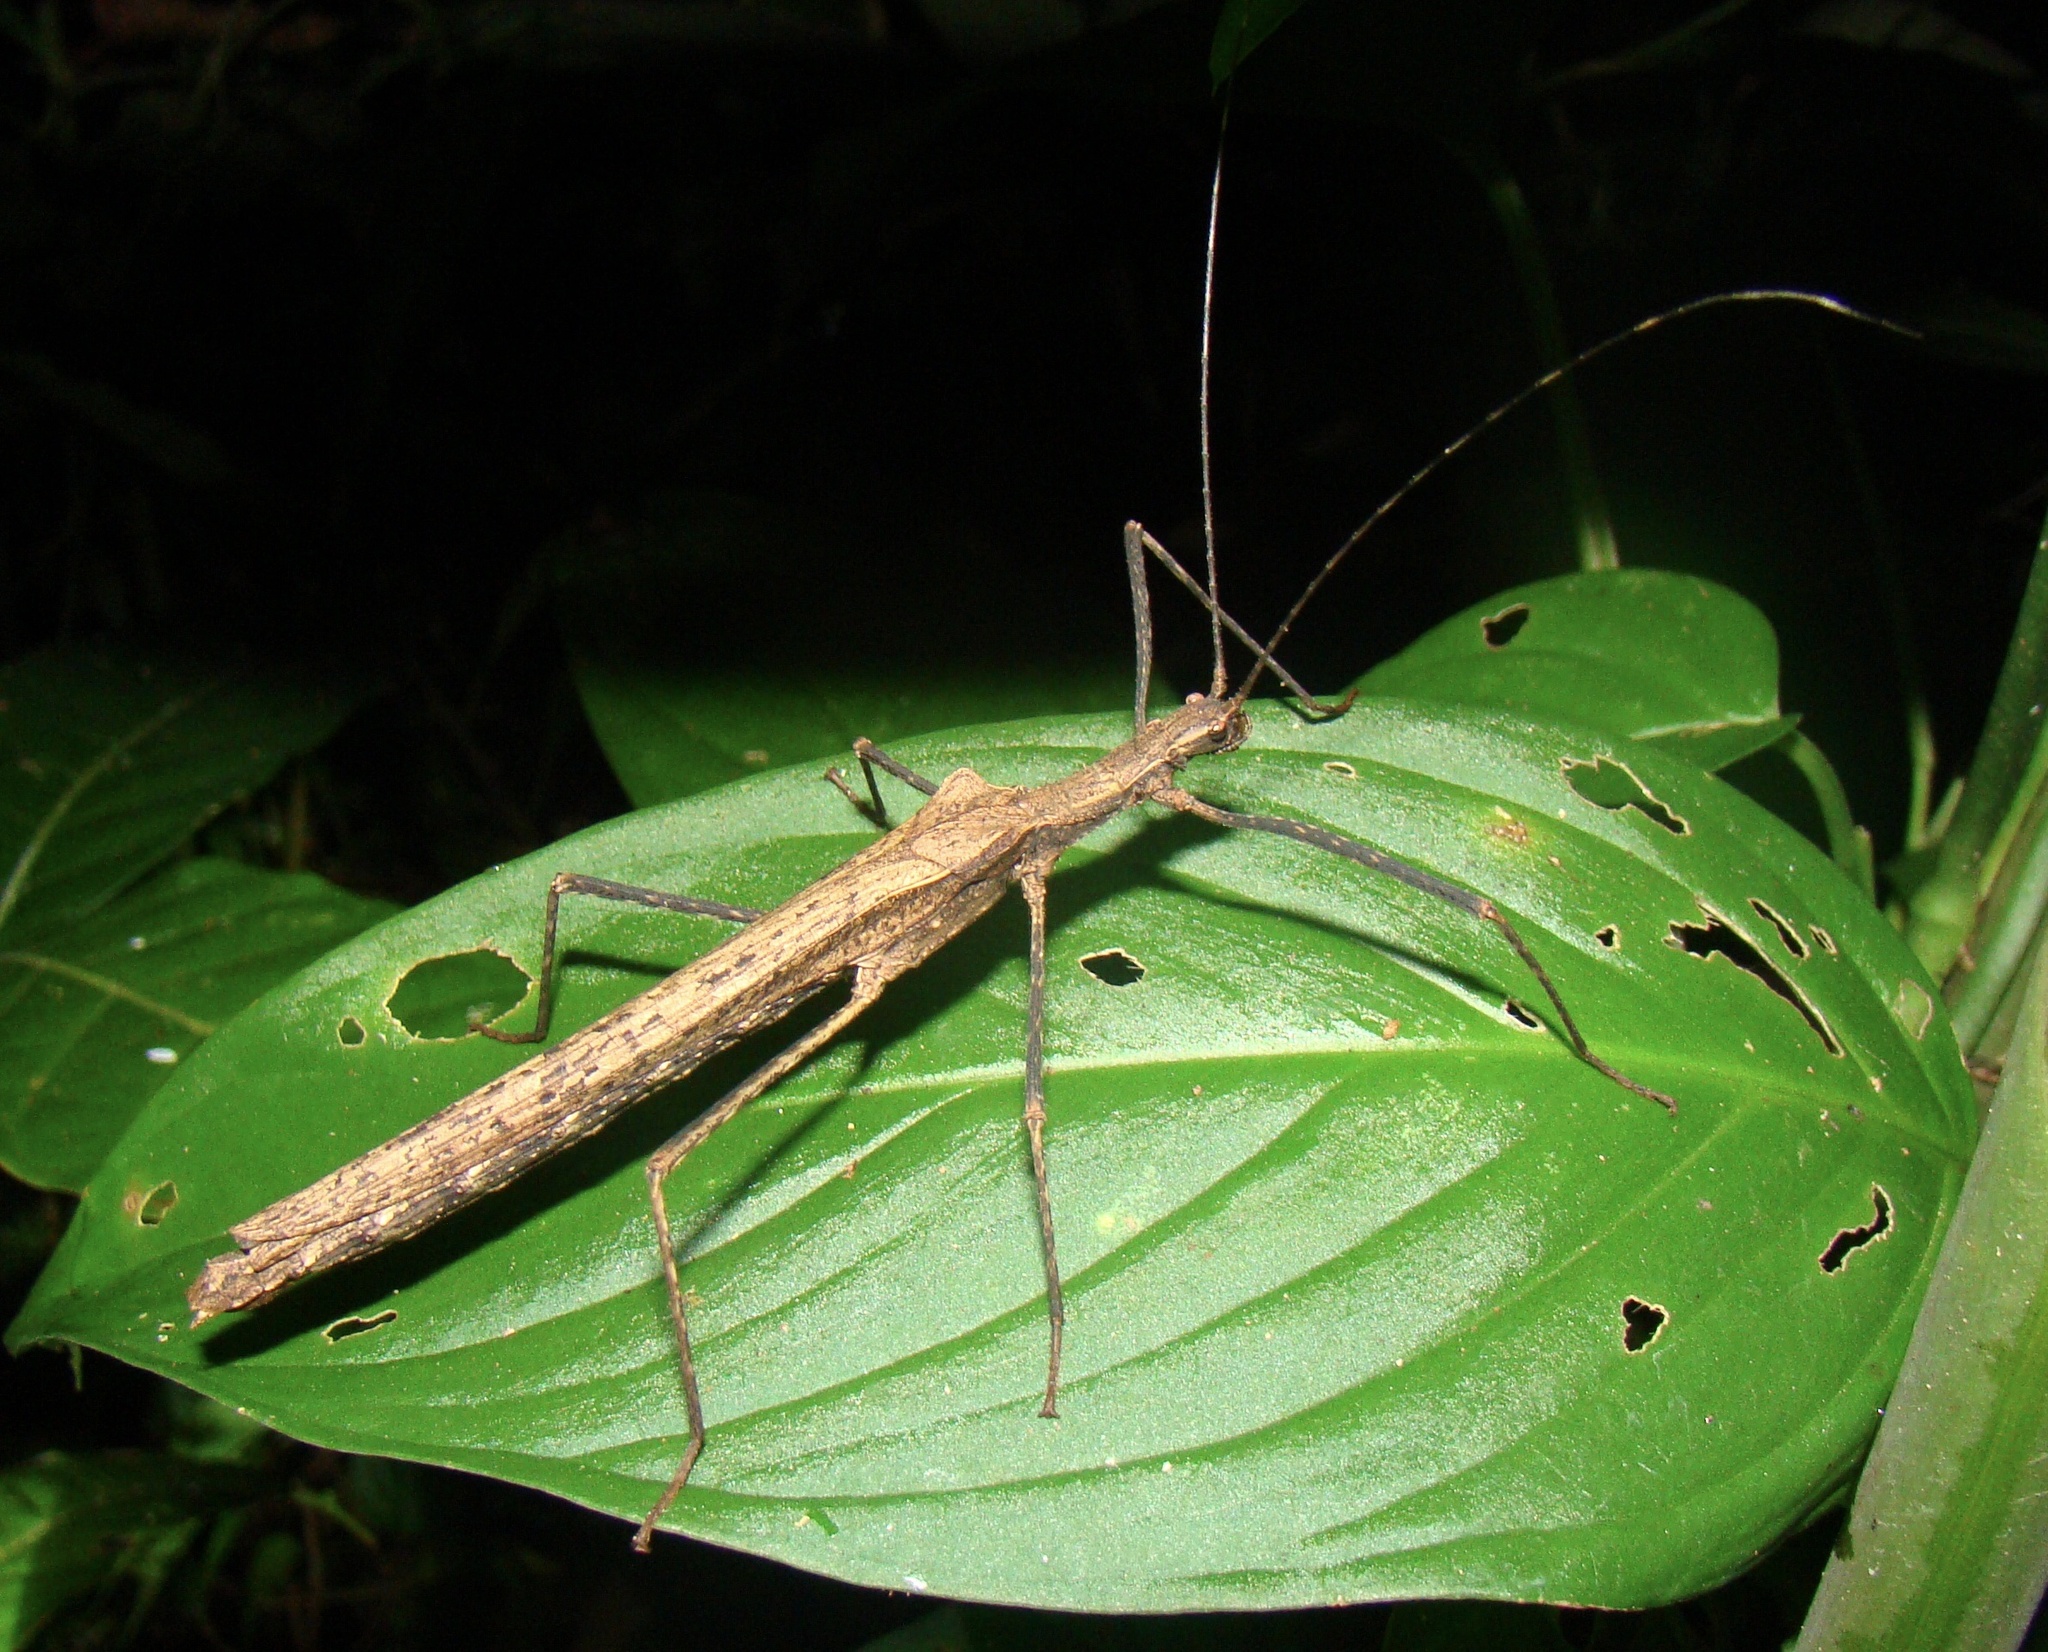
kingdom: Animalia
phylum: Arthropoda
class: Insecta
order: Phasmida
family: Pseudophasmatidae
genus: Pseudophasma
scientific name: Pseudophasma unicolor
